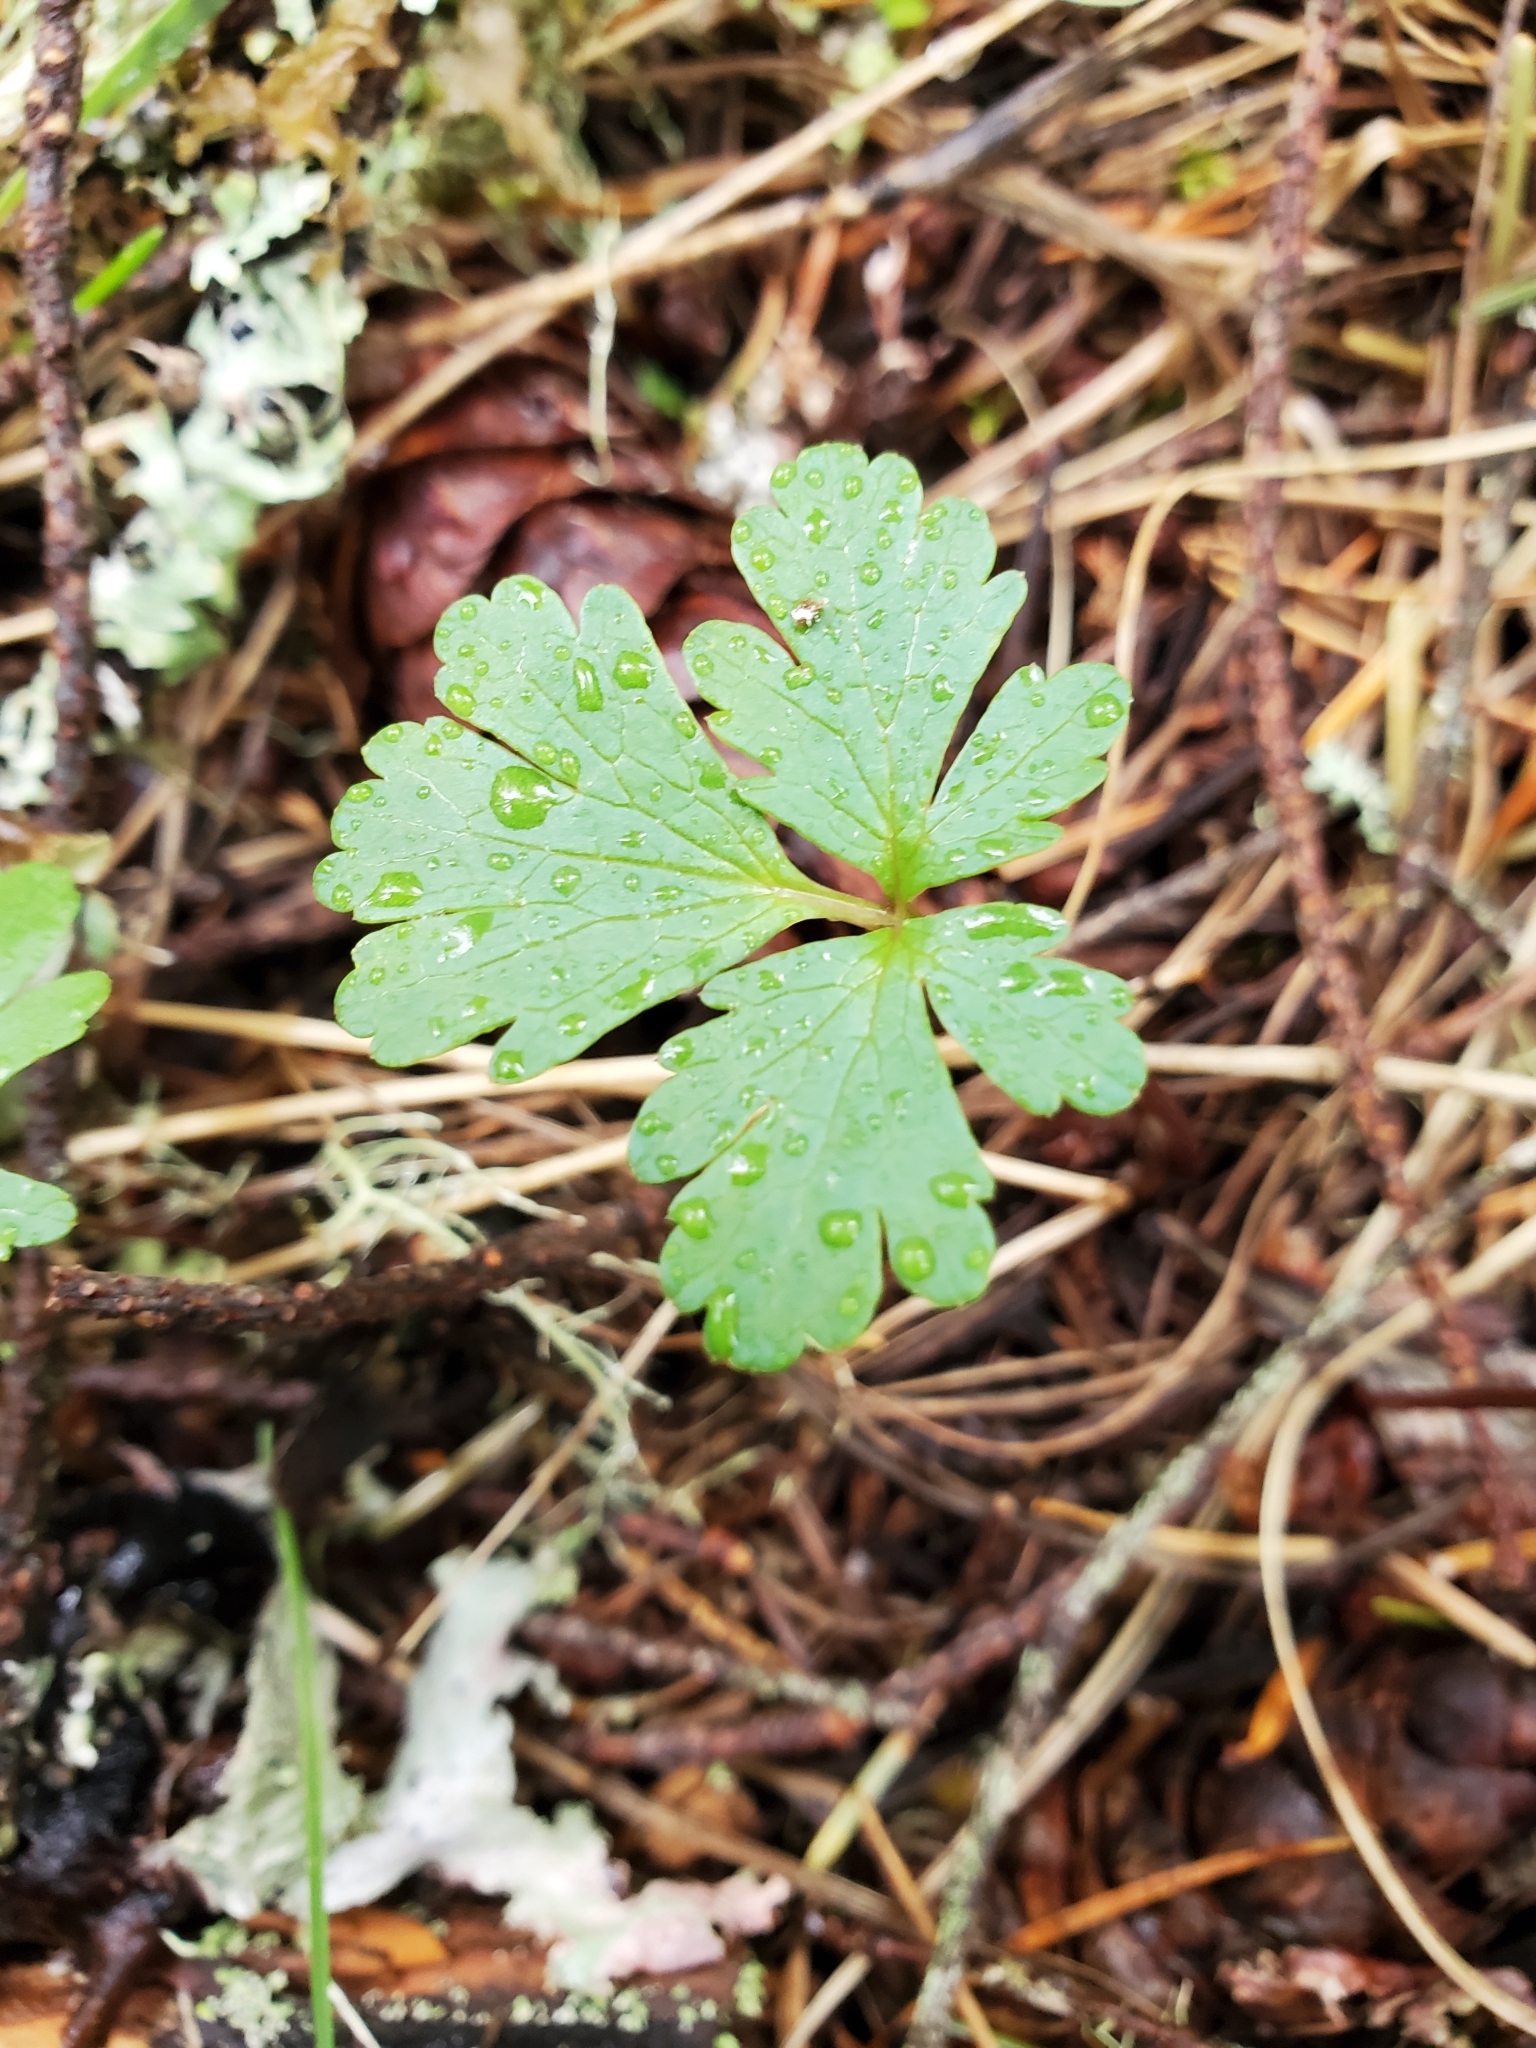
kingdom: Plantae
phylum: Tracheophyta
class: Magnoliopsida
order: Apiales
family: Apiaceae
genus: Sanicula
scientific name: Sanicula graveolens
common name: Sierra sanicle
